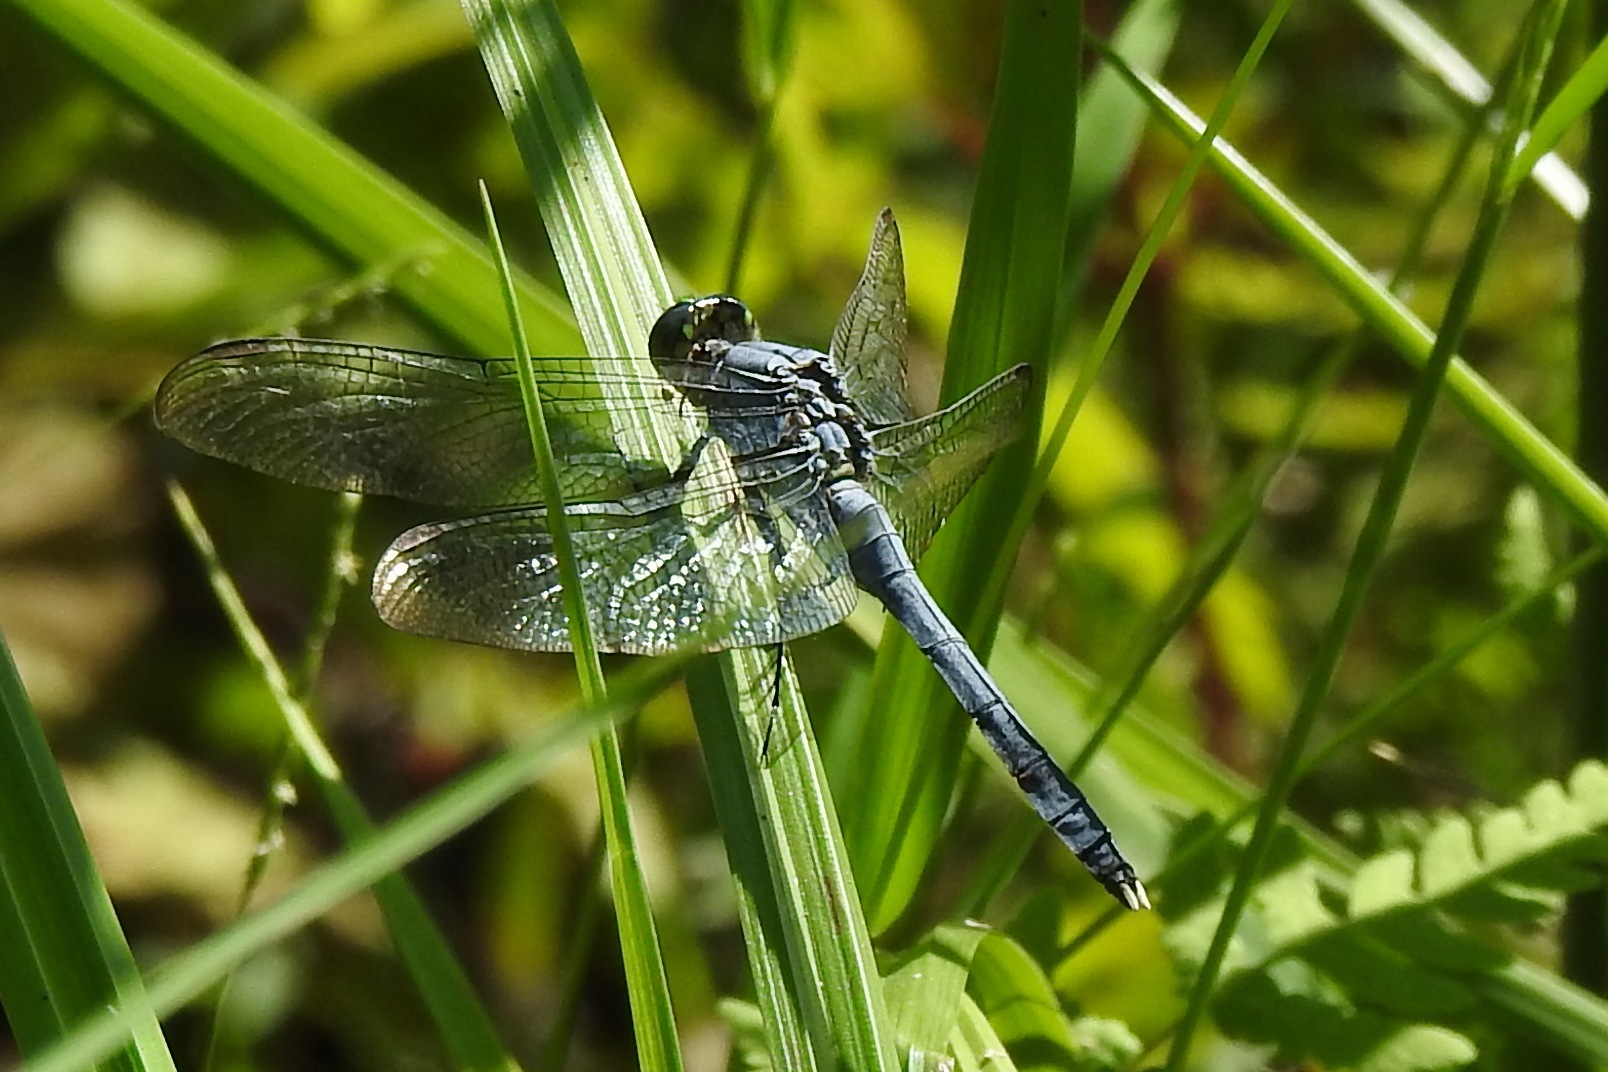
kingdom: Animalia
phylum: Arthropoda
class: Insecta
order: Odonata
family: Libellulidae
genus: Erythemis
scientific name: Erythemis simplicicollis
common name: Eastern pondhawk
